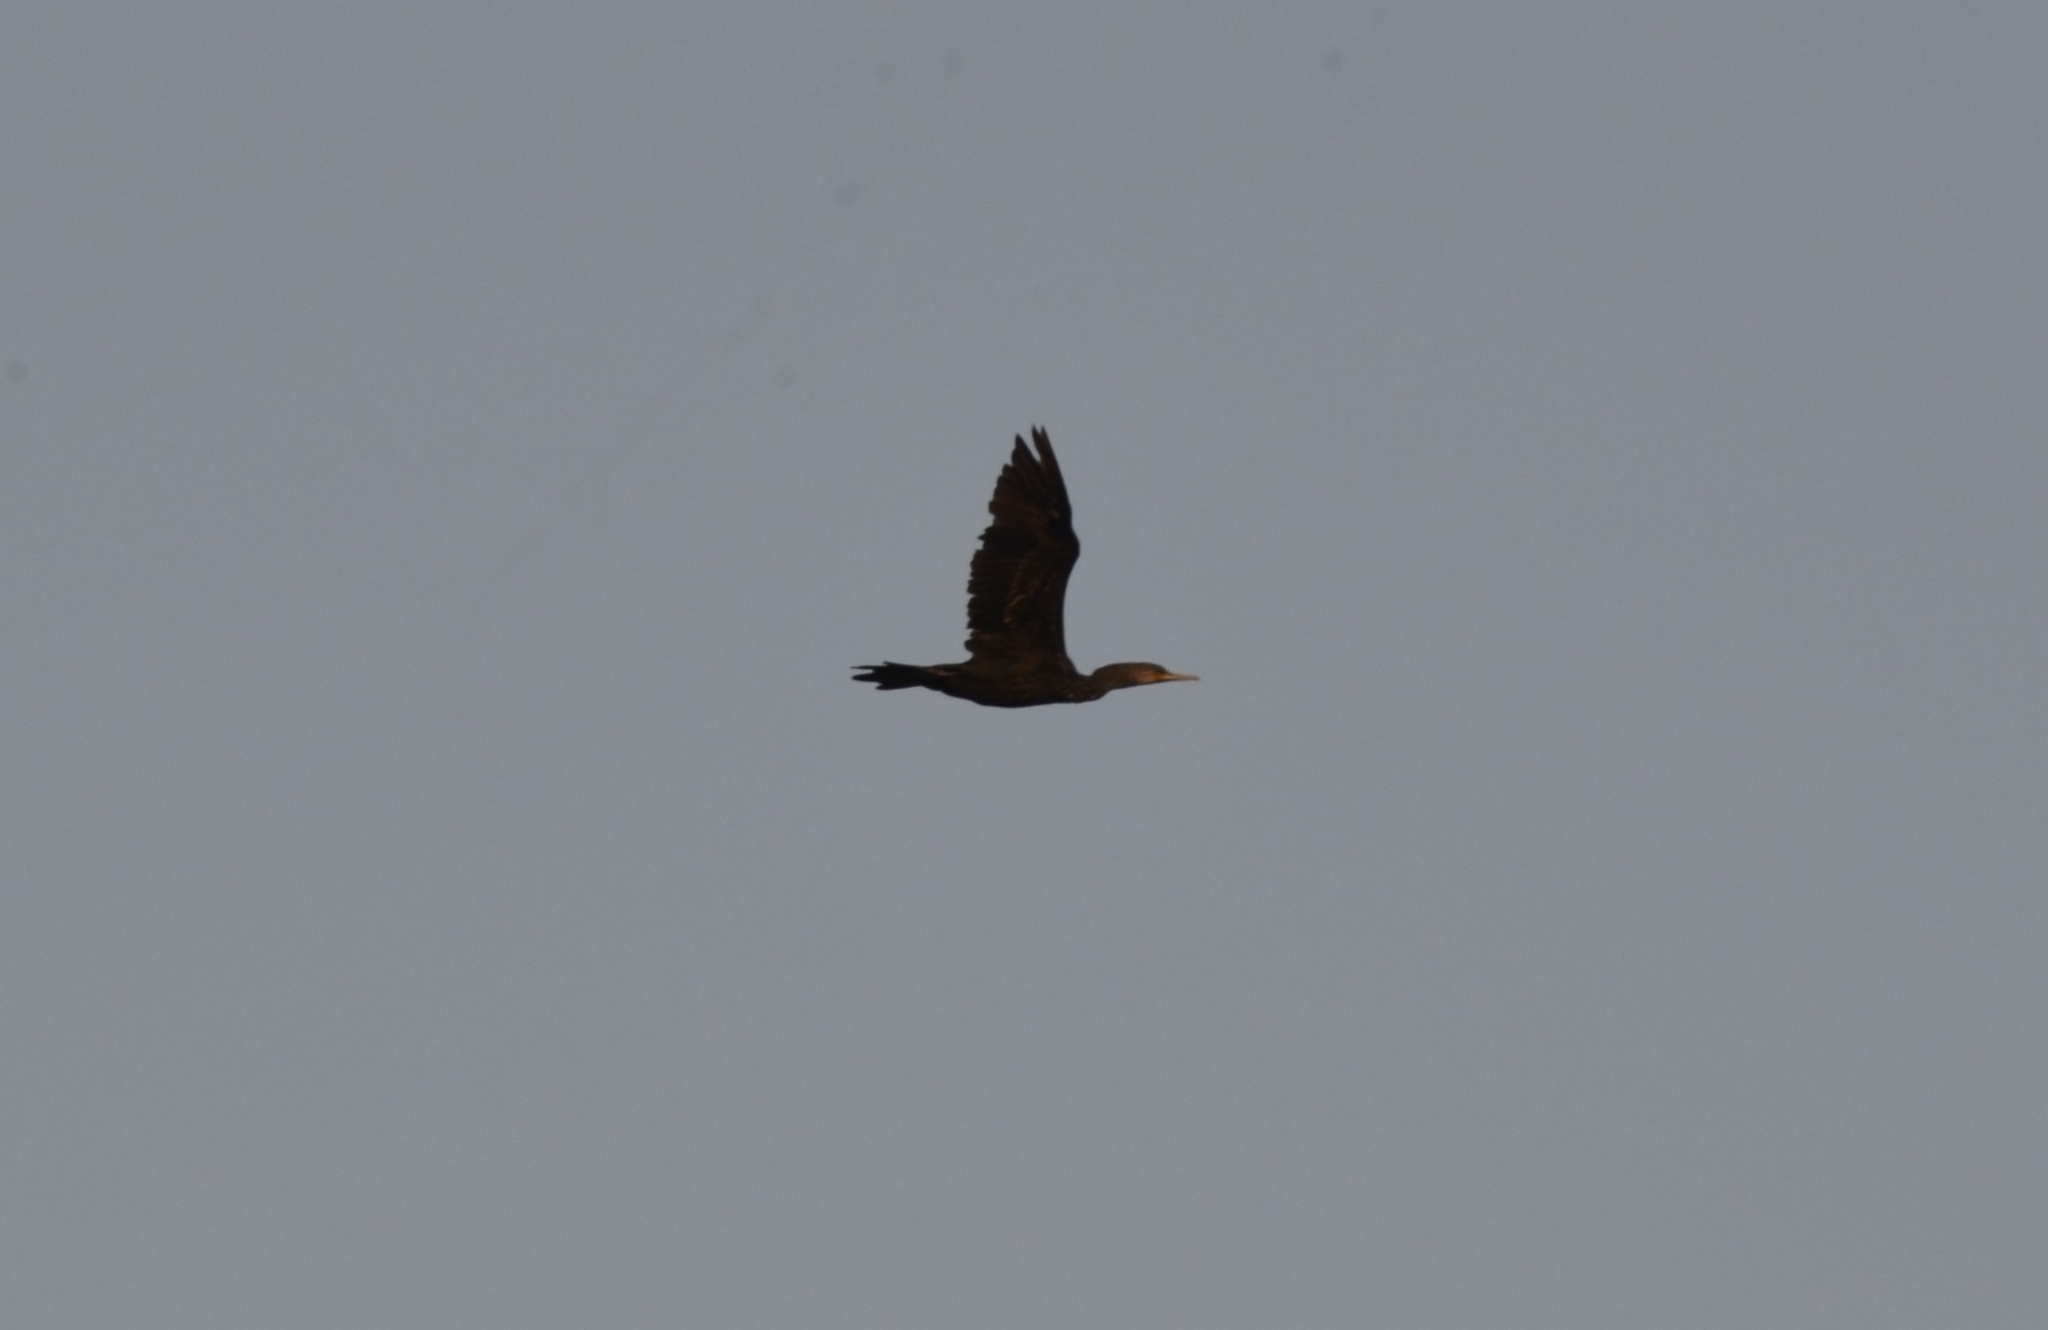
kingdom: Animalia
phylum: Chordata
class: Aves
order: Suliformes
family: Phalacrocoracidae
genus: Phalacrocorax
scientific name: Phalacrocorax fuscicollis
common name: Indian cormorant
